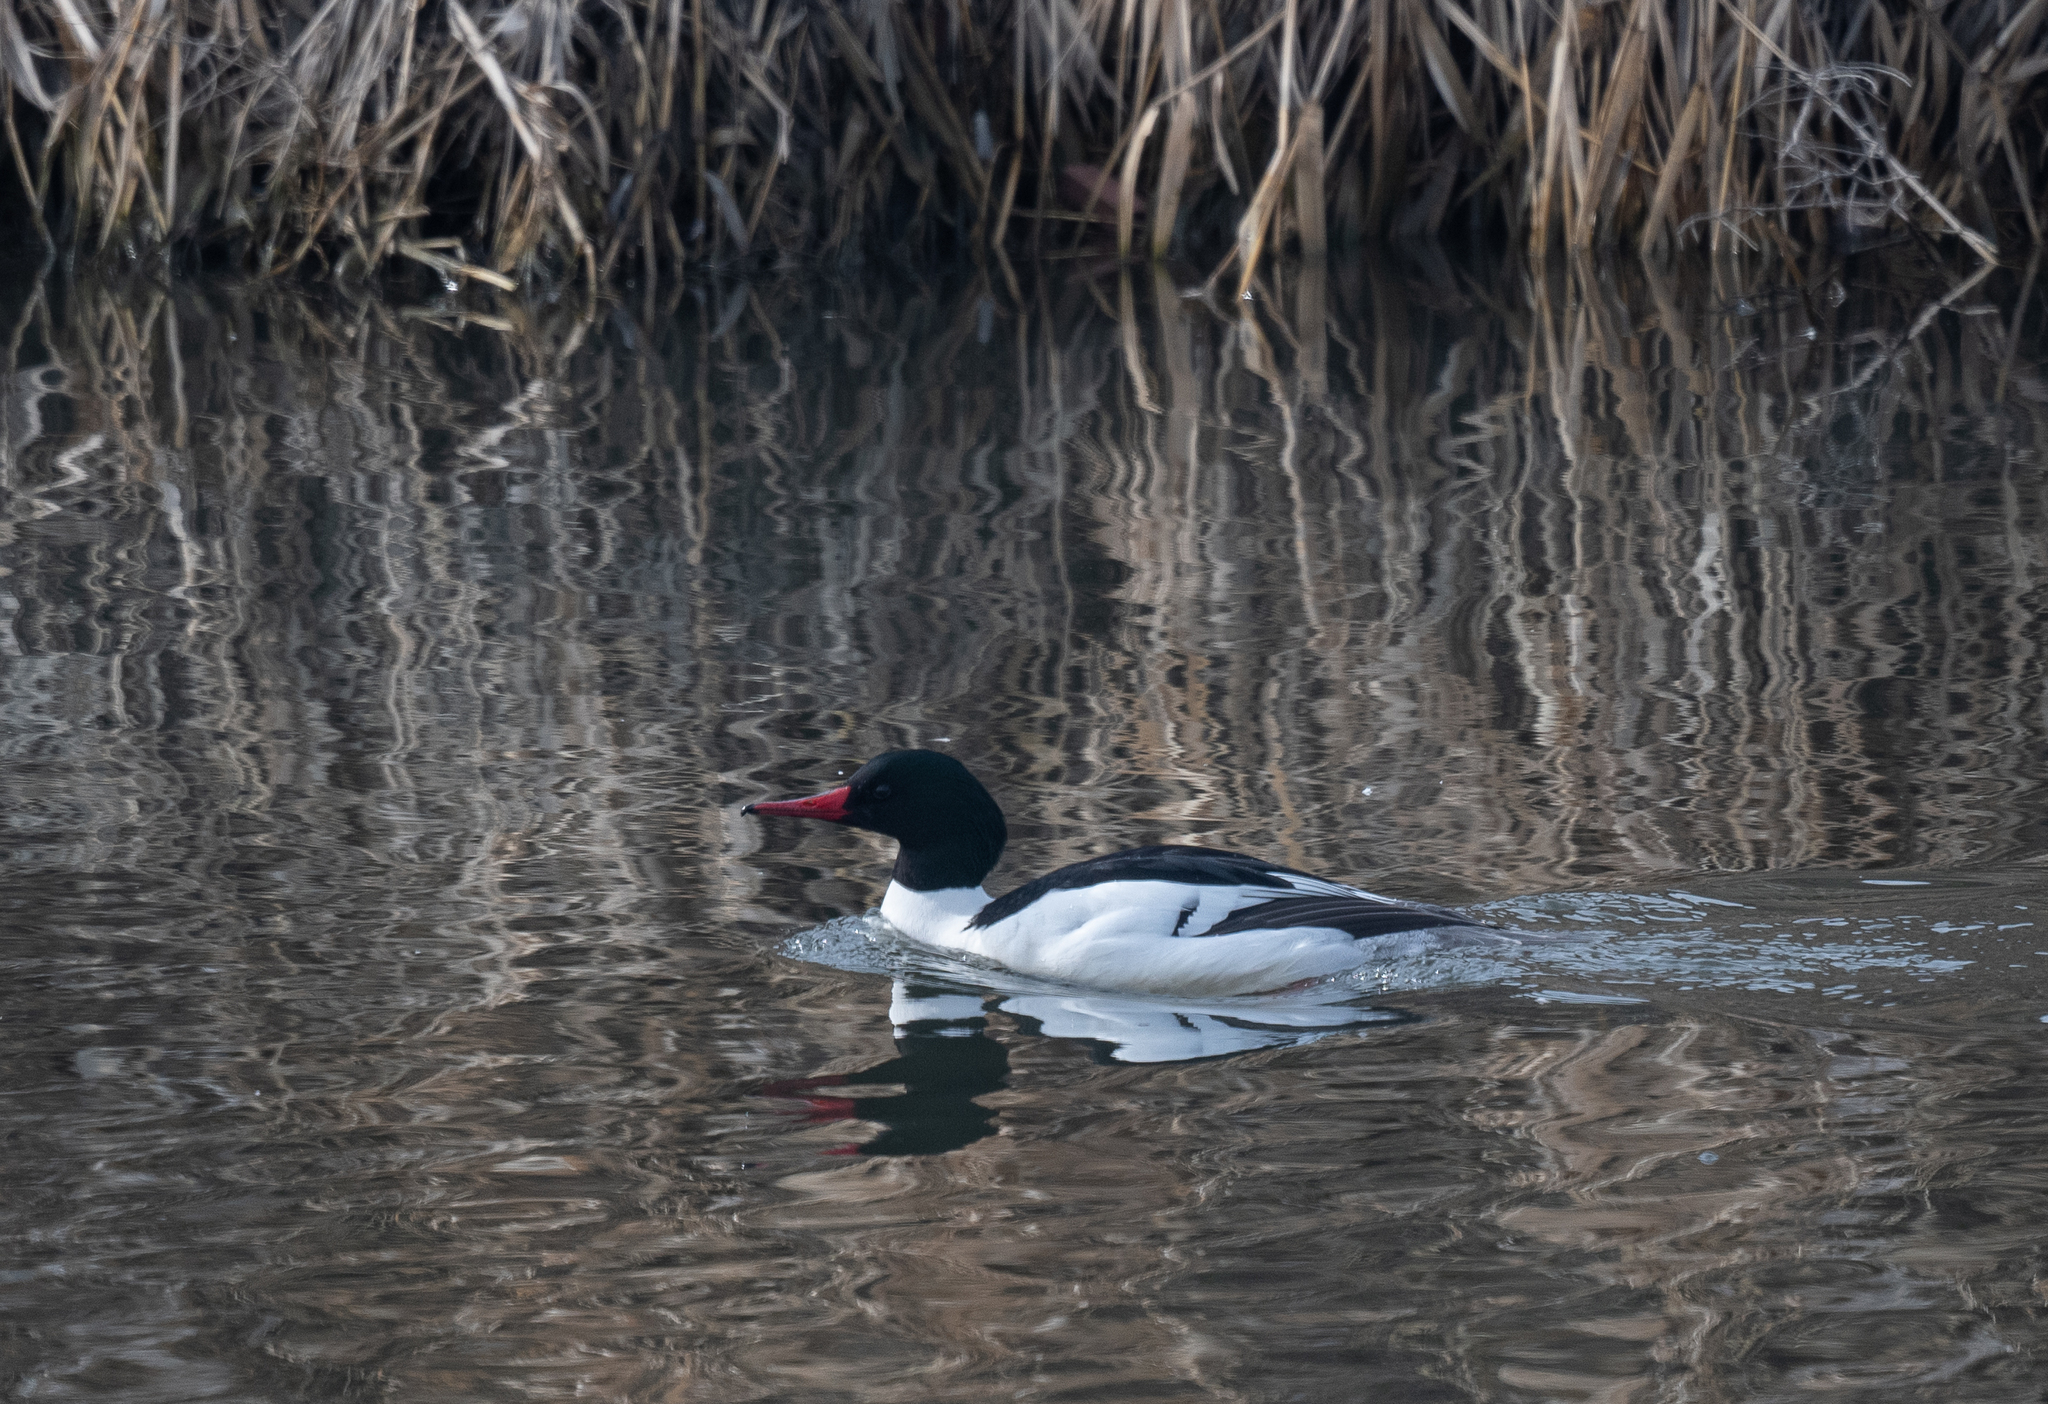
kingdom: Animalia
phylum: Chordata
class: Aves
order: Anseriformes
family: Anatidae
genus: Mergus
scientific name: Mergus merganser
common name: Common merganser
